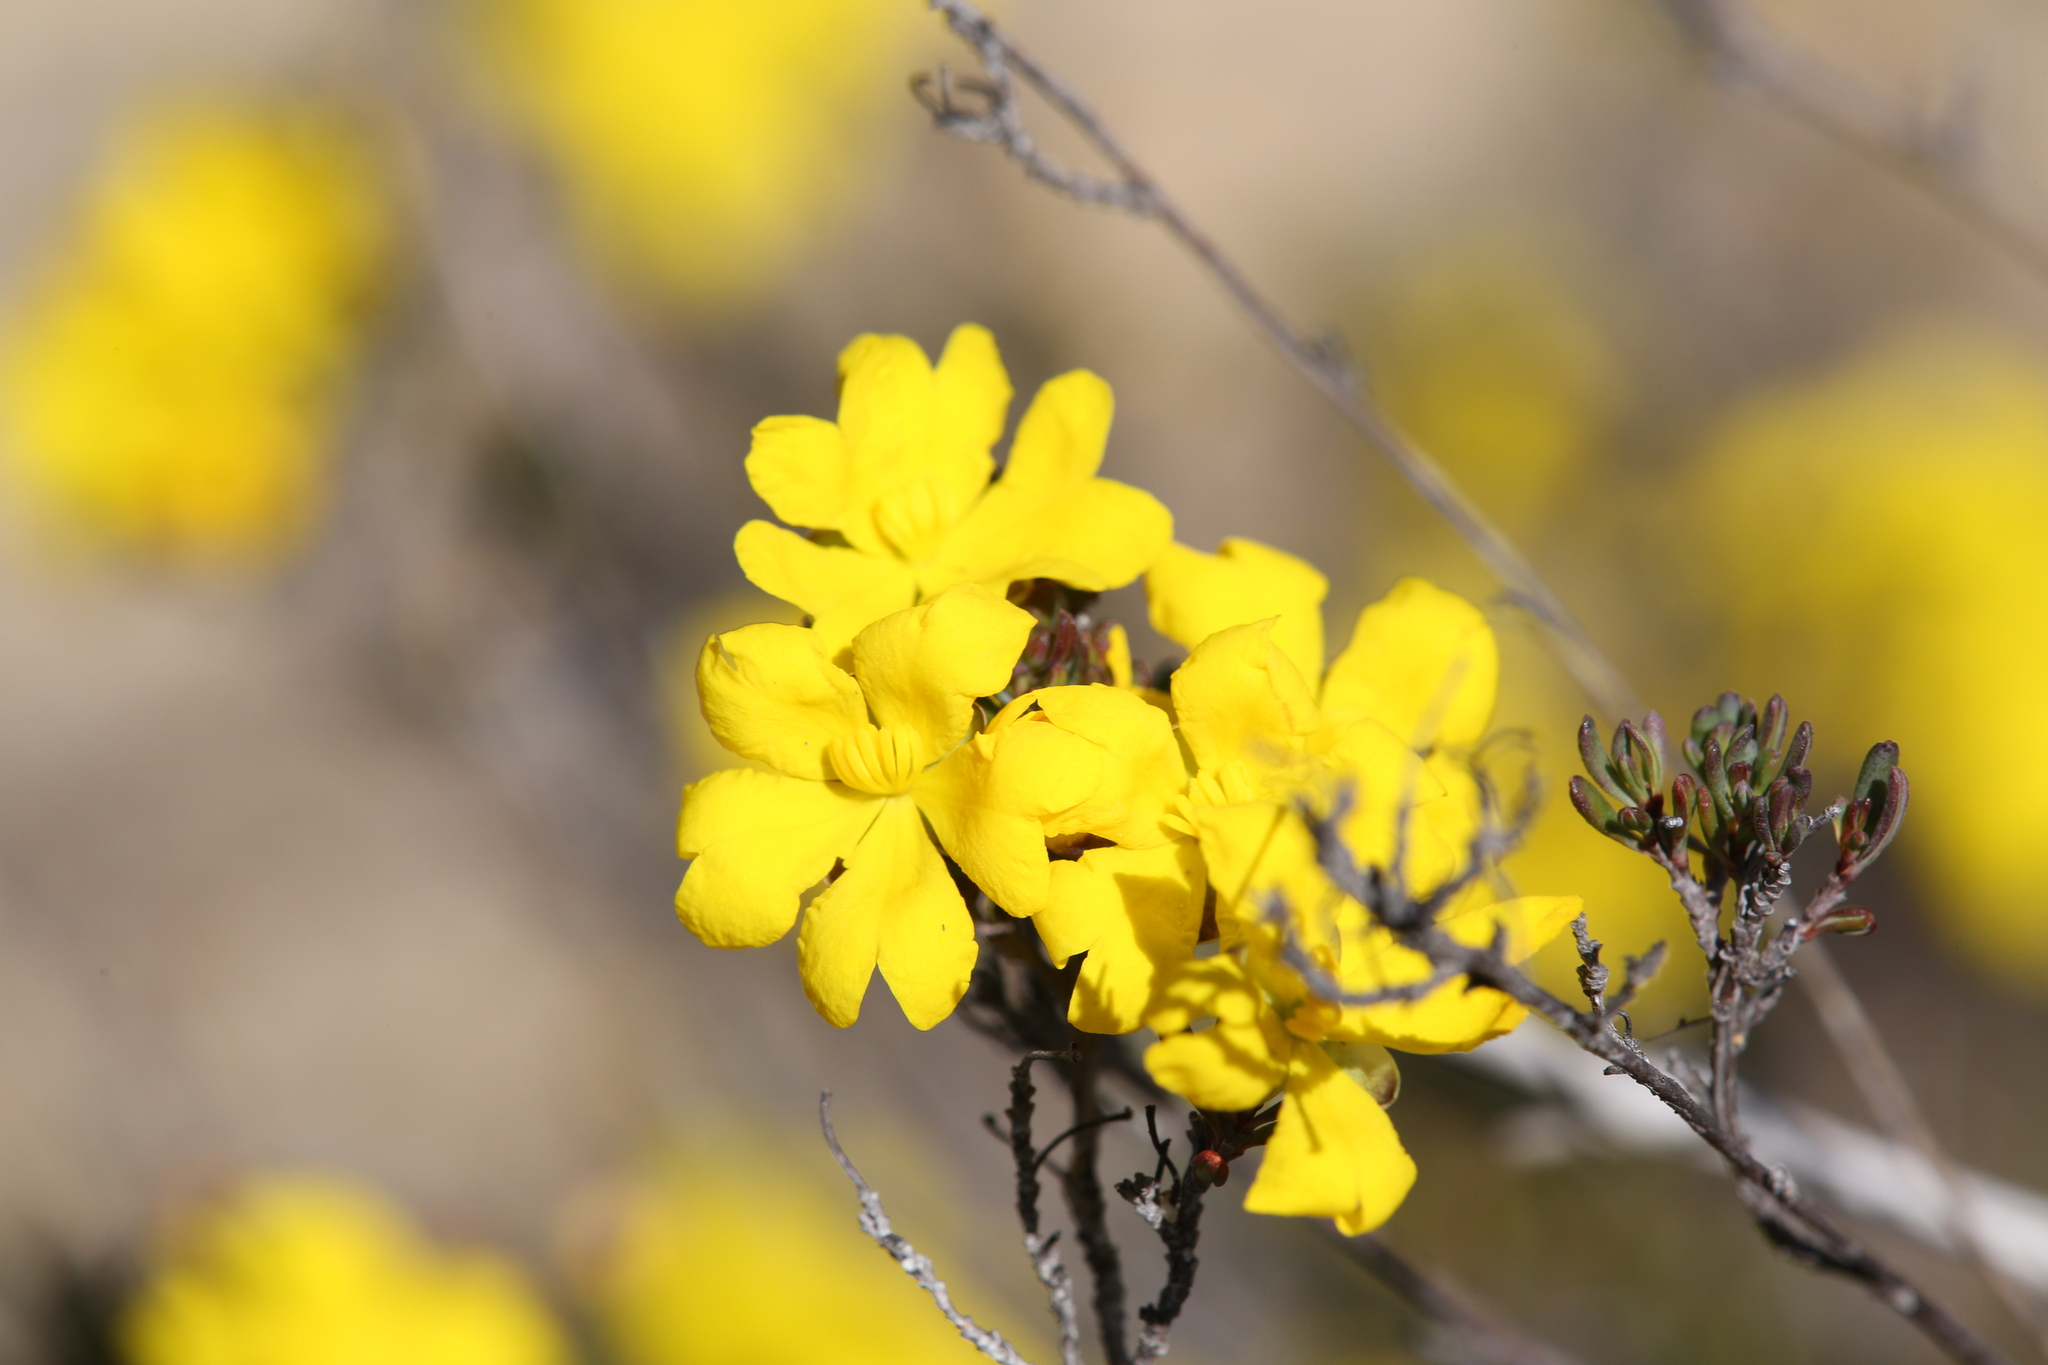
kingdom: Plantae
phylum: Tracheophyta
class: Magnoliopsida
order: Dilleniales
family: Dilleniaceae
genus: Hibbertia
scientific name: Hibbertia gracilipes
